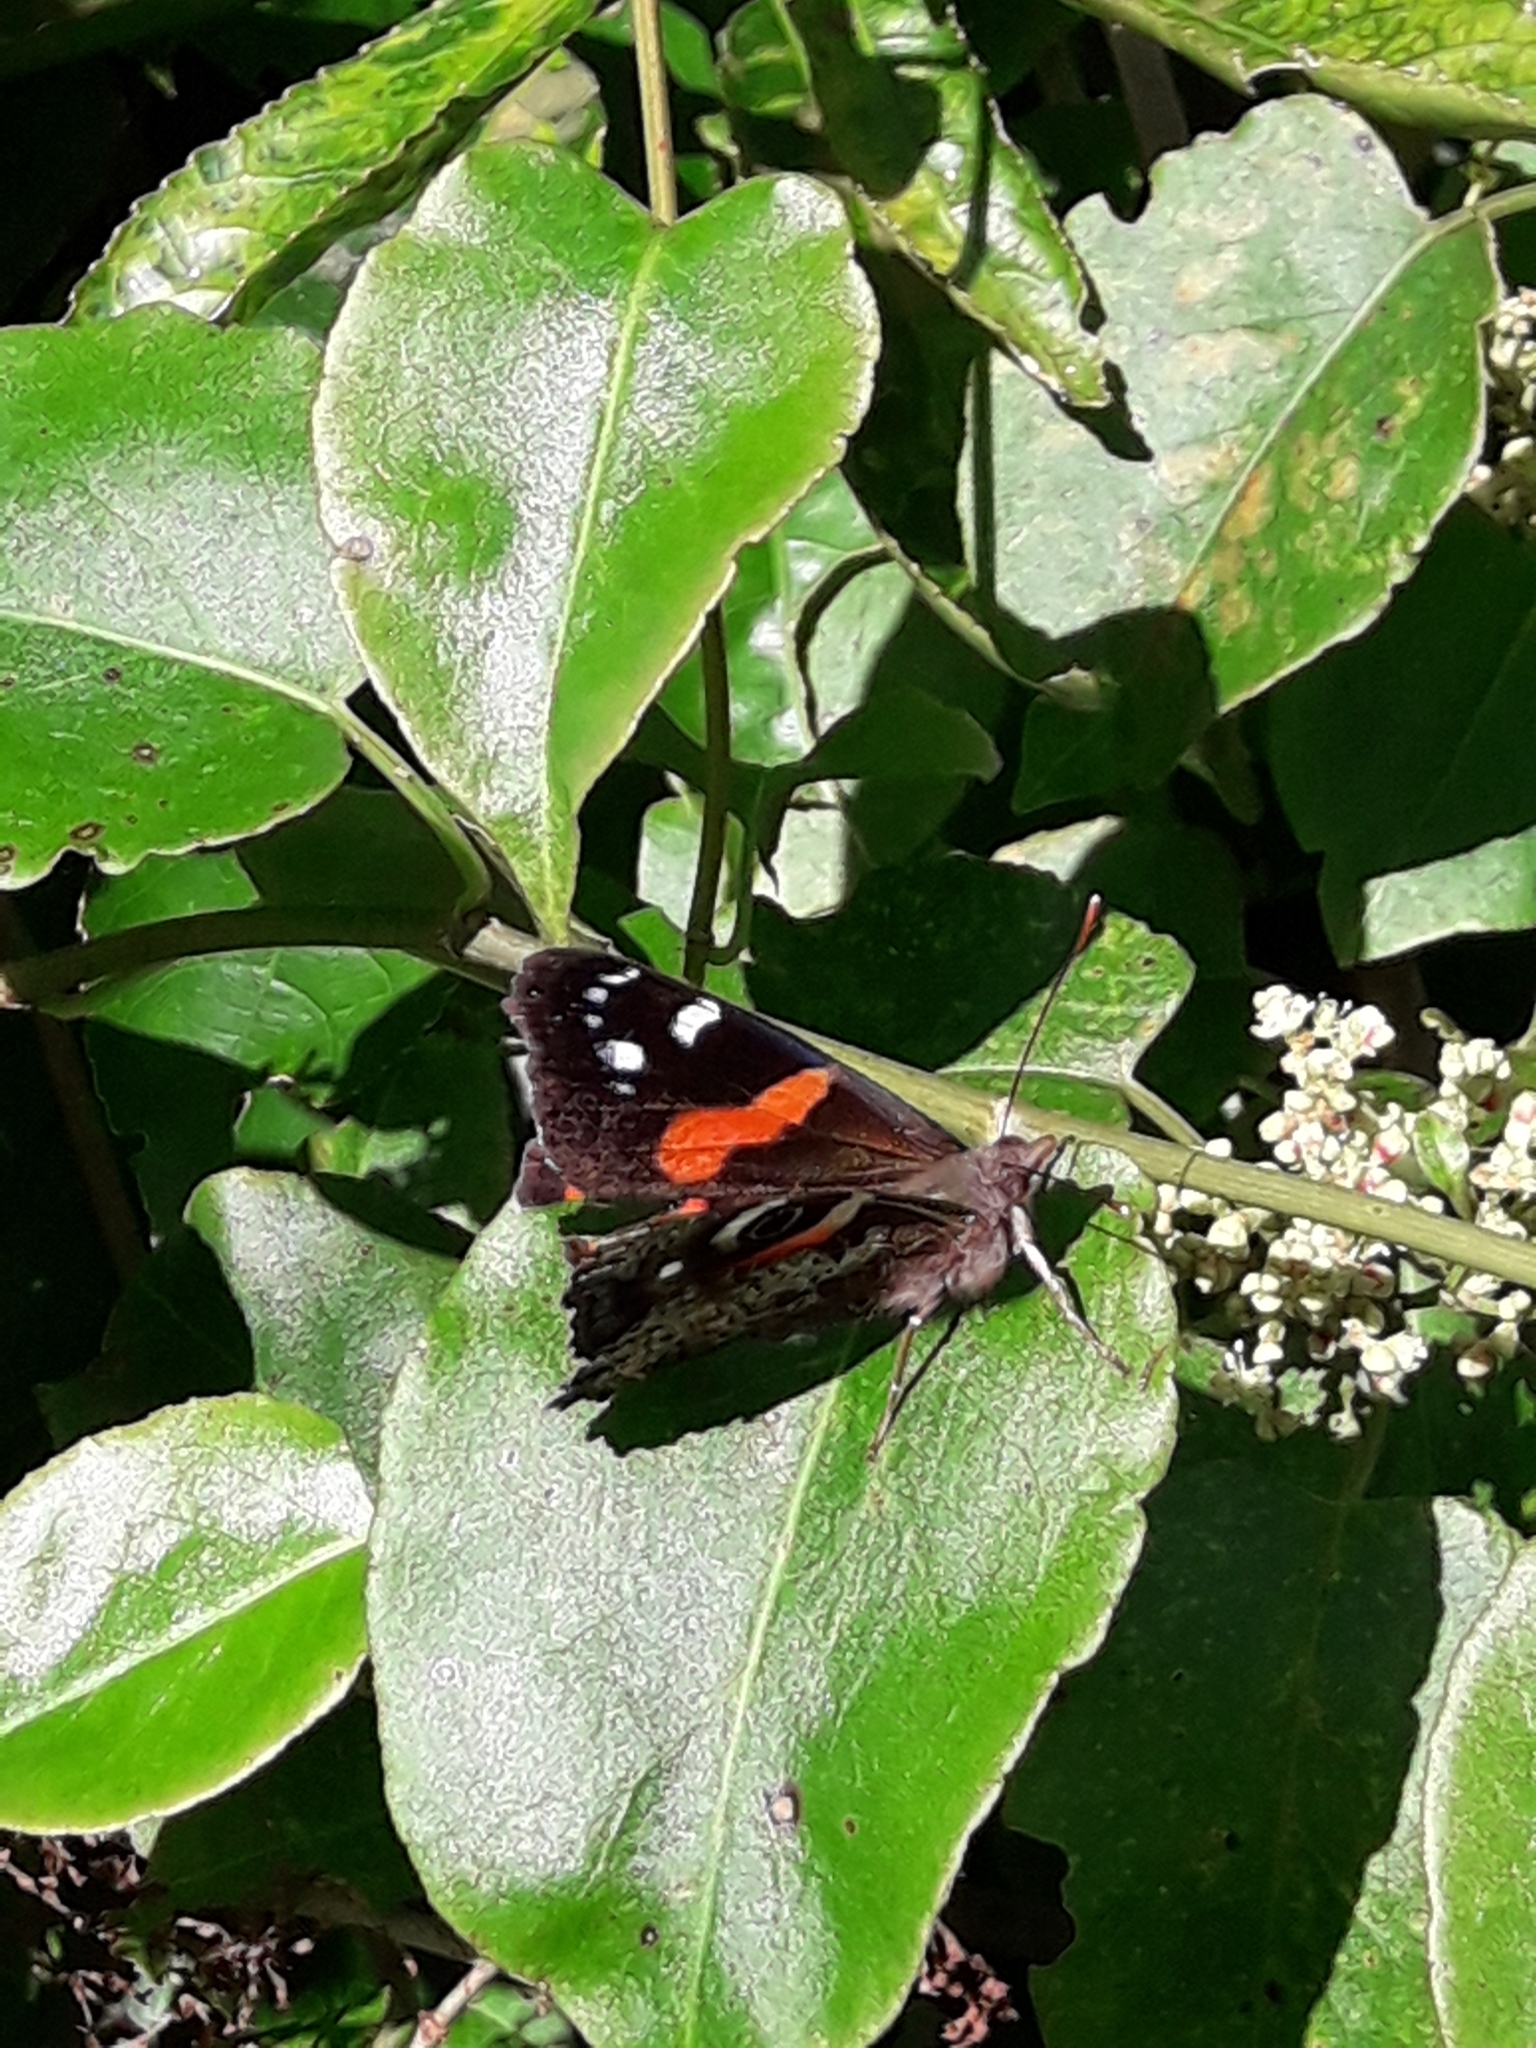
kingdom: Animalia
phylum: Arthropoda
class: Insecta
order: Lepidoptera
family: Nymphalidae
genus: Vanessa
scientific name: Vanessa gonerilla
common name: New zealand red admiral
